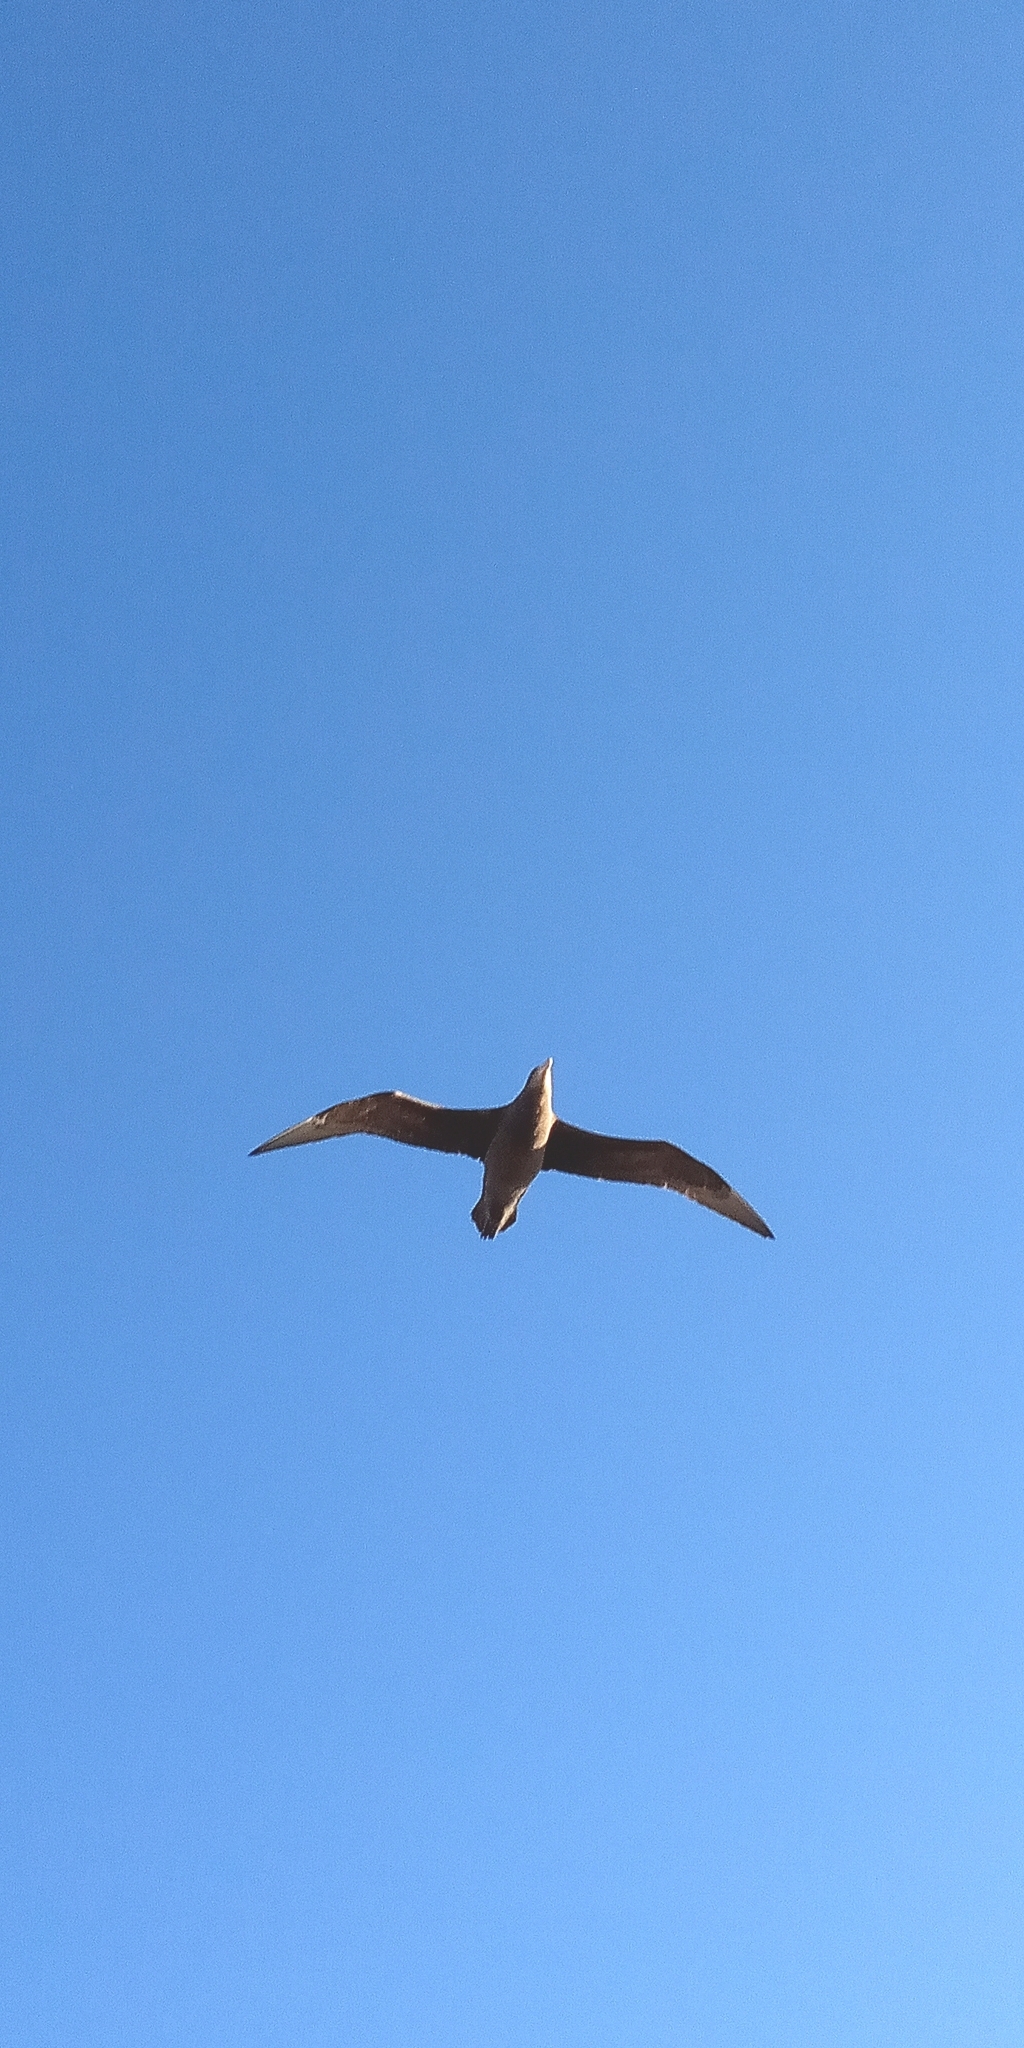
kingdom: Animalia
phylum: Chordata
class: Aves
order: Procellariiformes
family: Procellariidae
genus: Macronectes
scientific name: Macronectes halli
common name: Northern giant petrel
